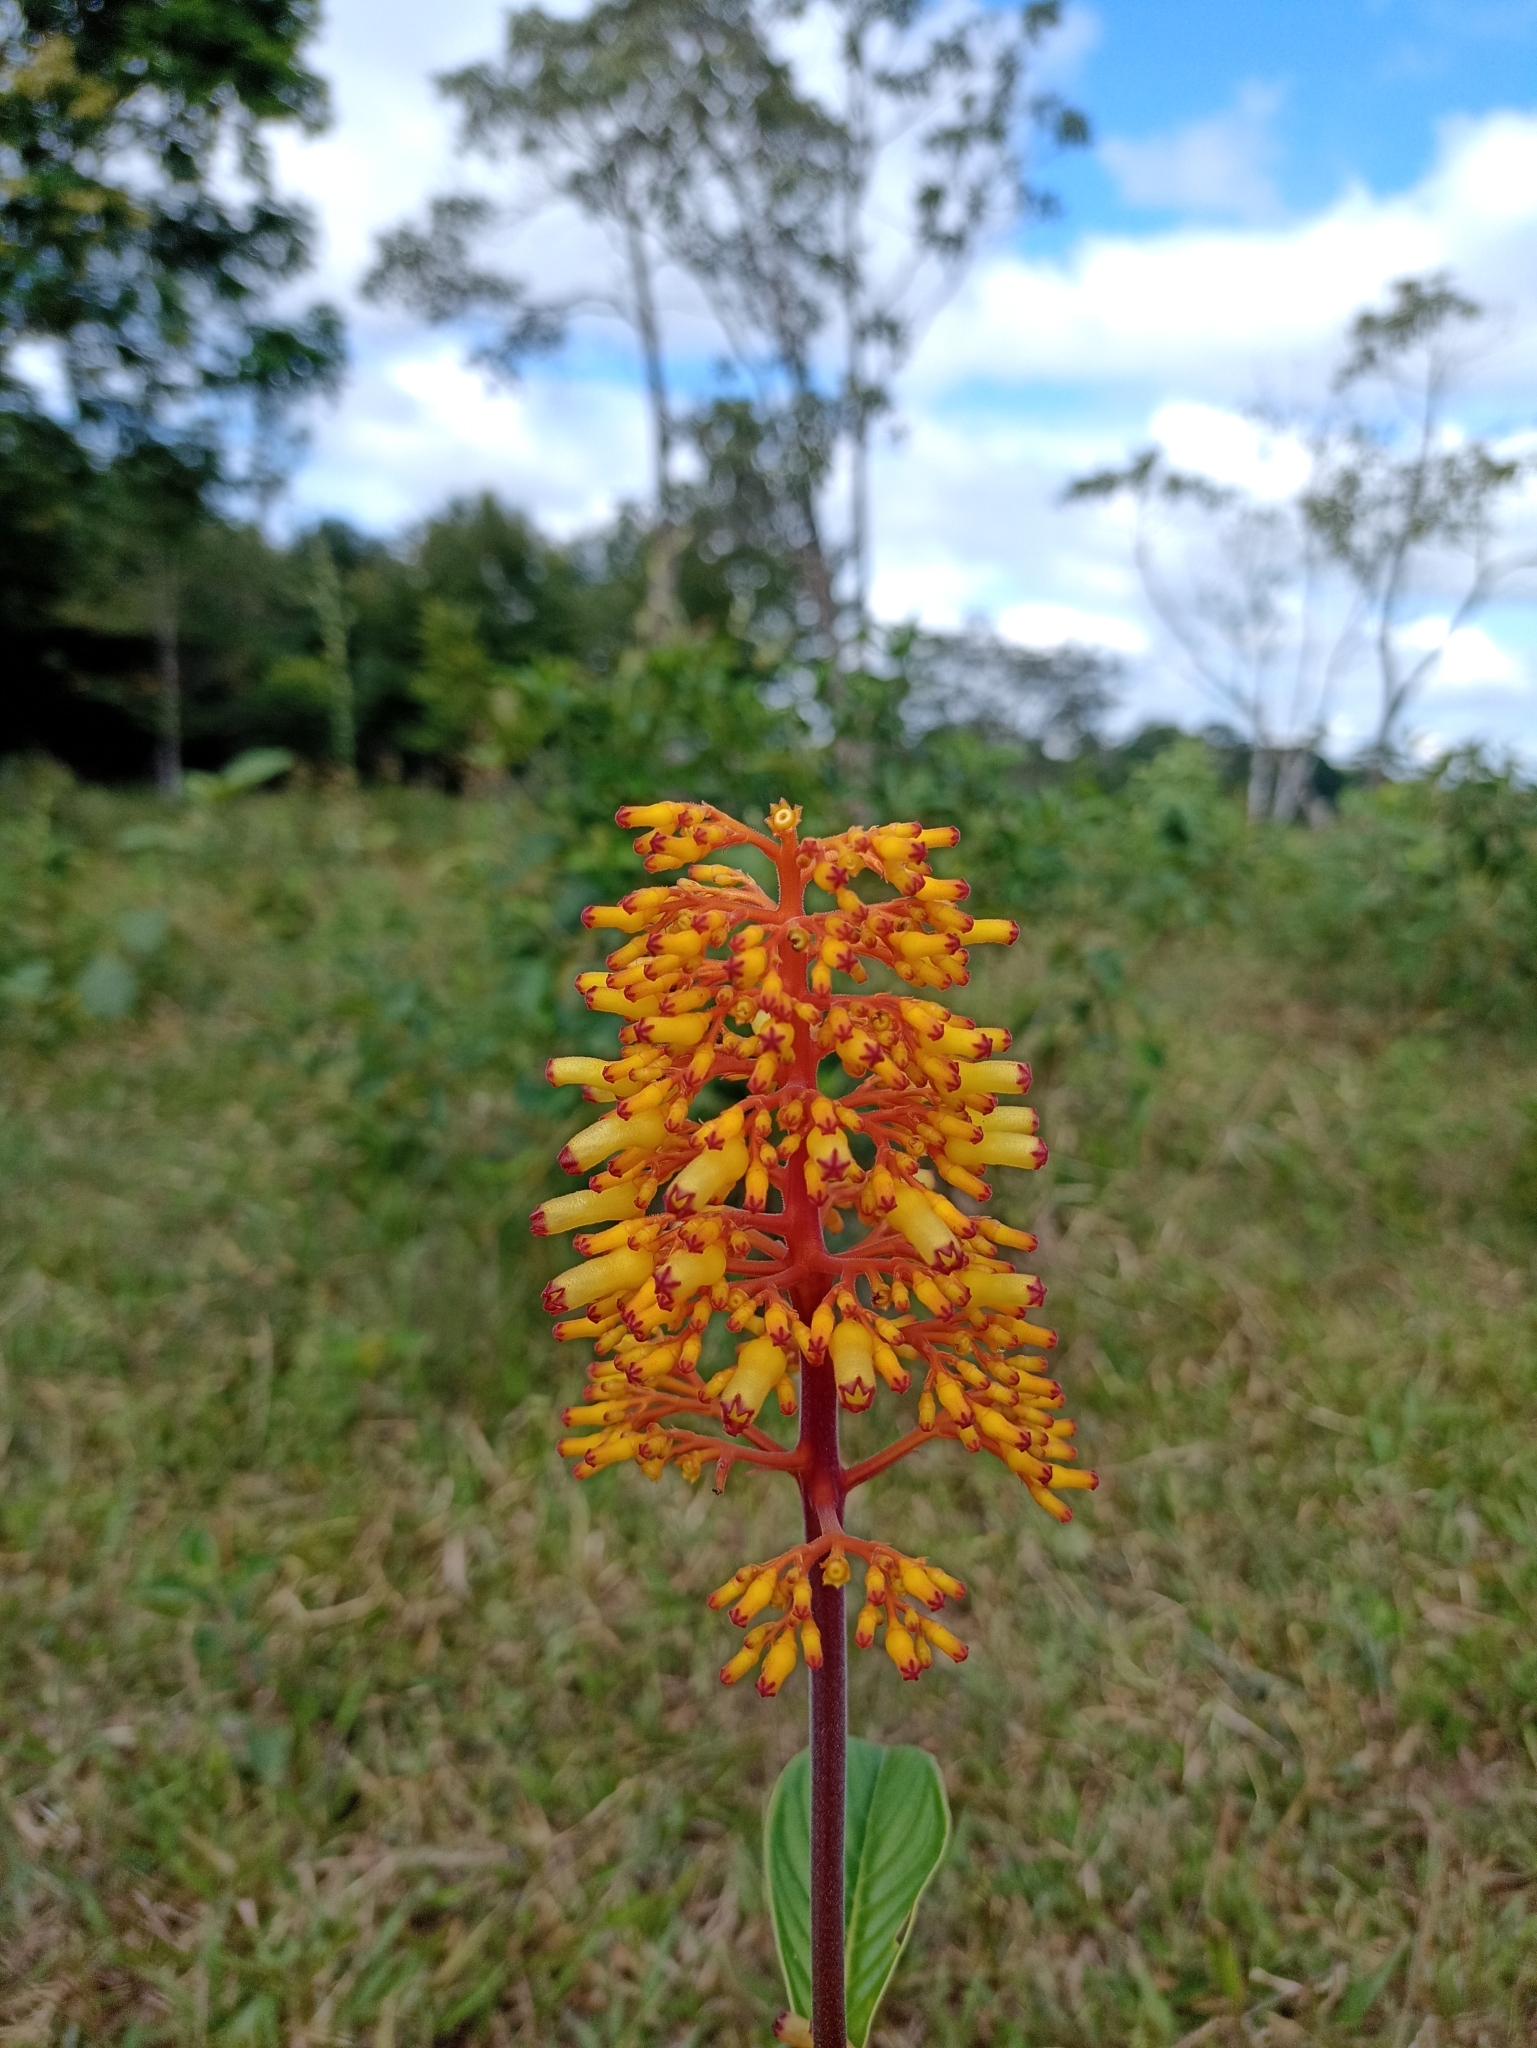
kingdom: Plantae
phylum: Tracheophyta
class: Magnoliopsida
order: Gentianales
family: Rubiaceae
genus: Palicourea
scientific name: Palicourea triphylla
